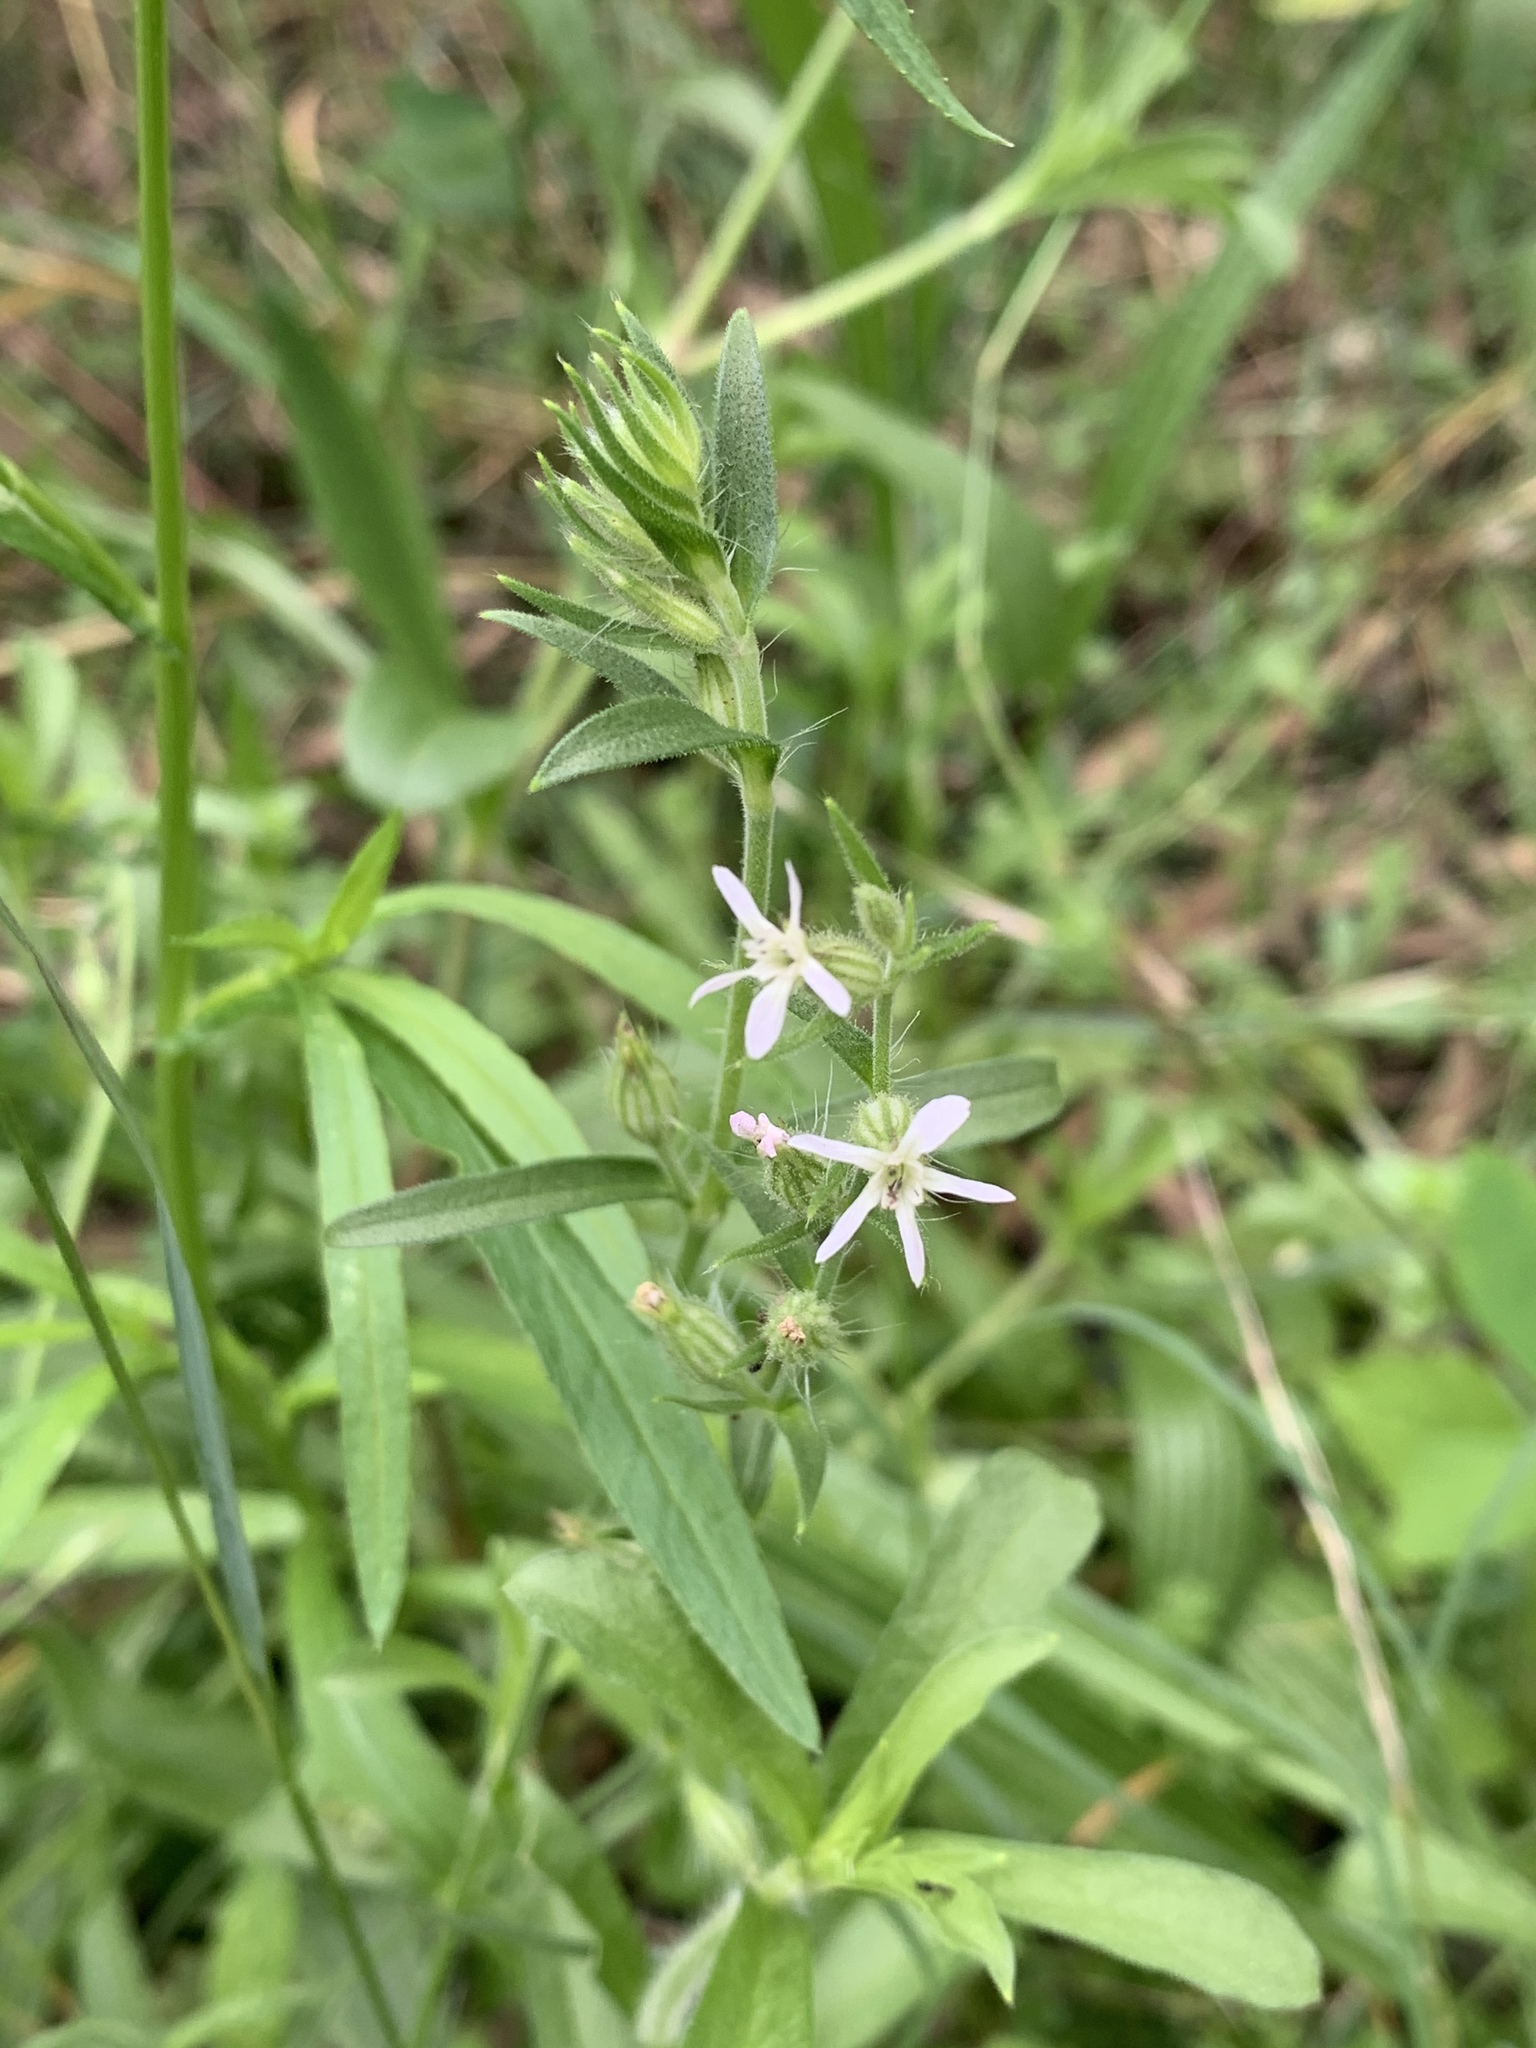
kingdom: Plantae
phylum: Tracheophyta
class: Magnoliopsida
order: Caryophyllales
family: Caryophyllaceae
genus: Silene
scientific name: Silene gallica
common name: Small-flowered catchfly
